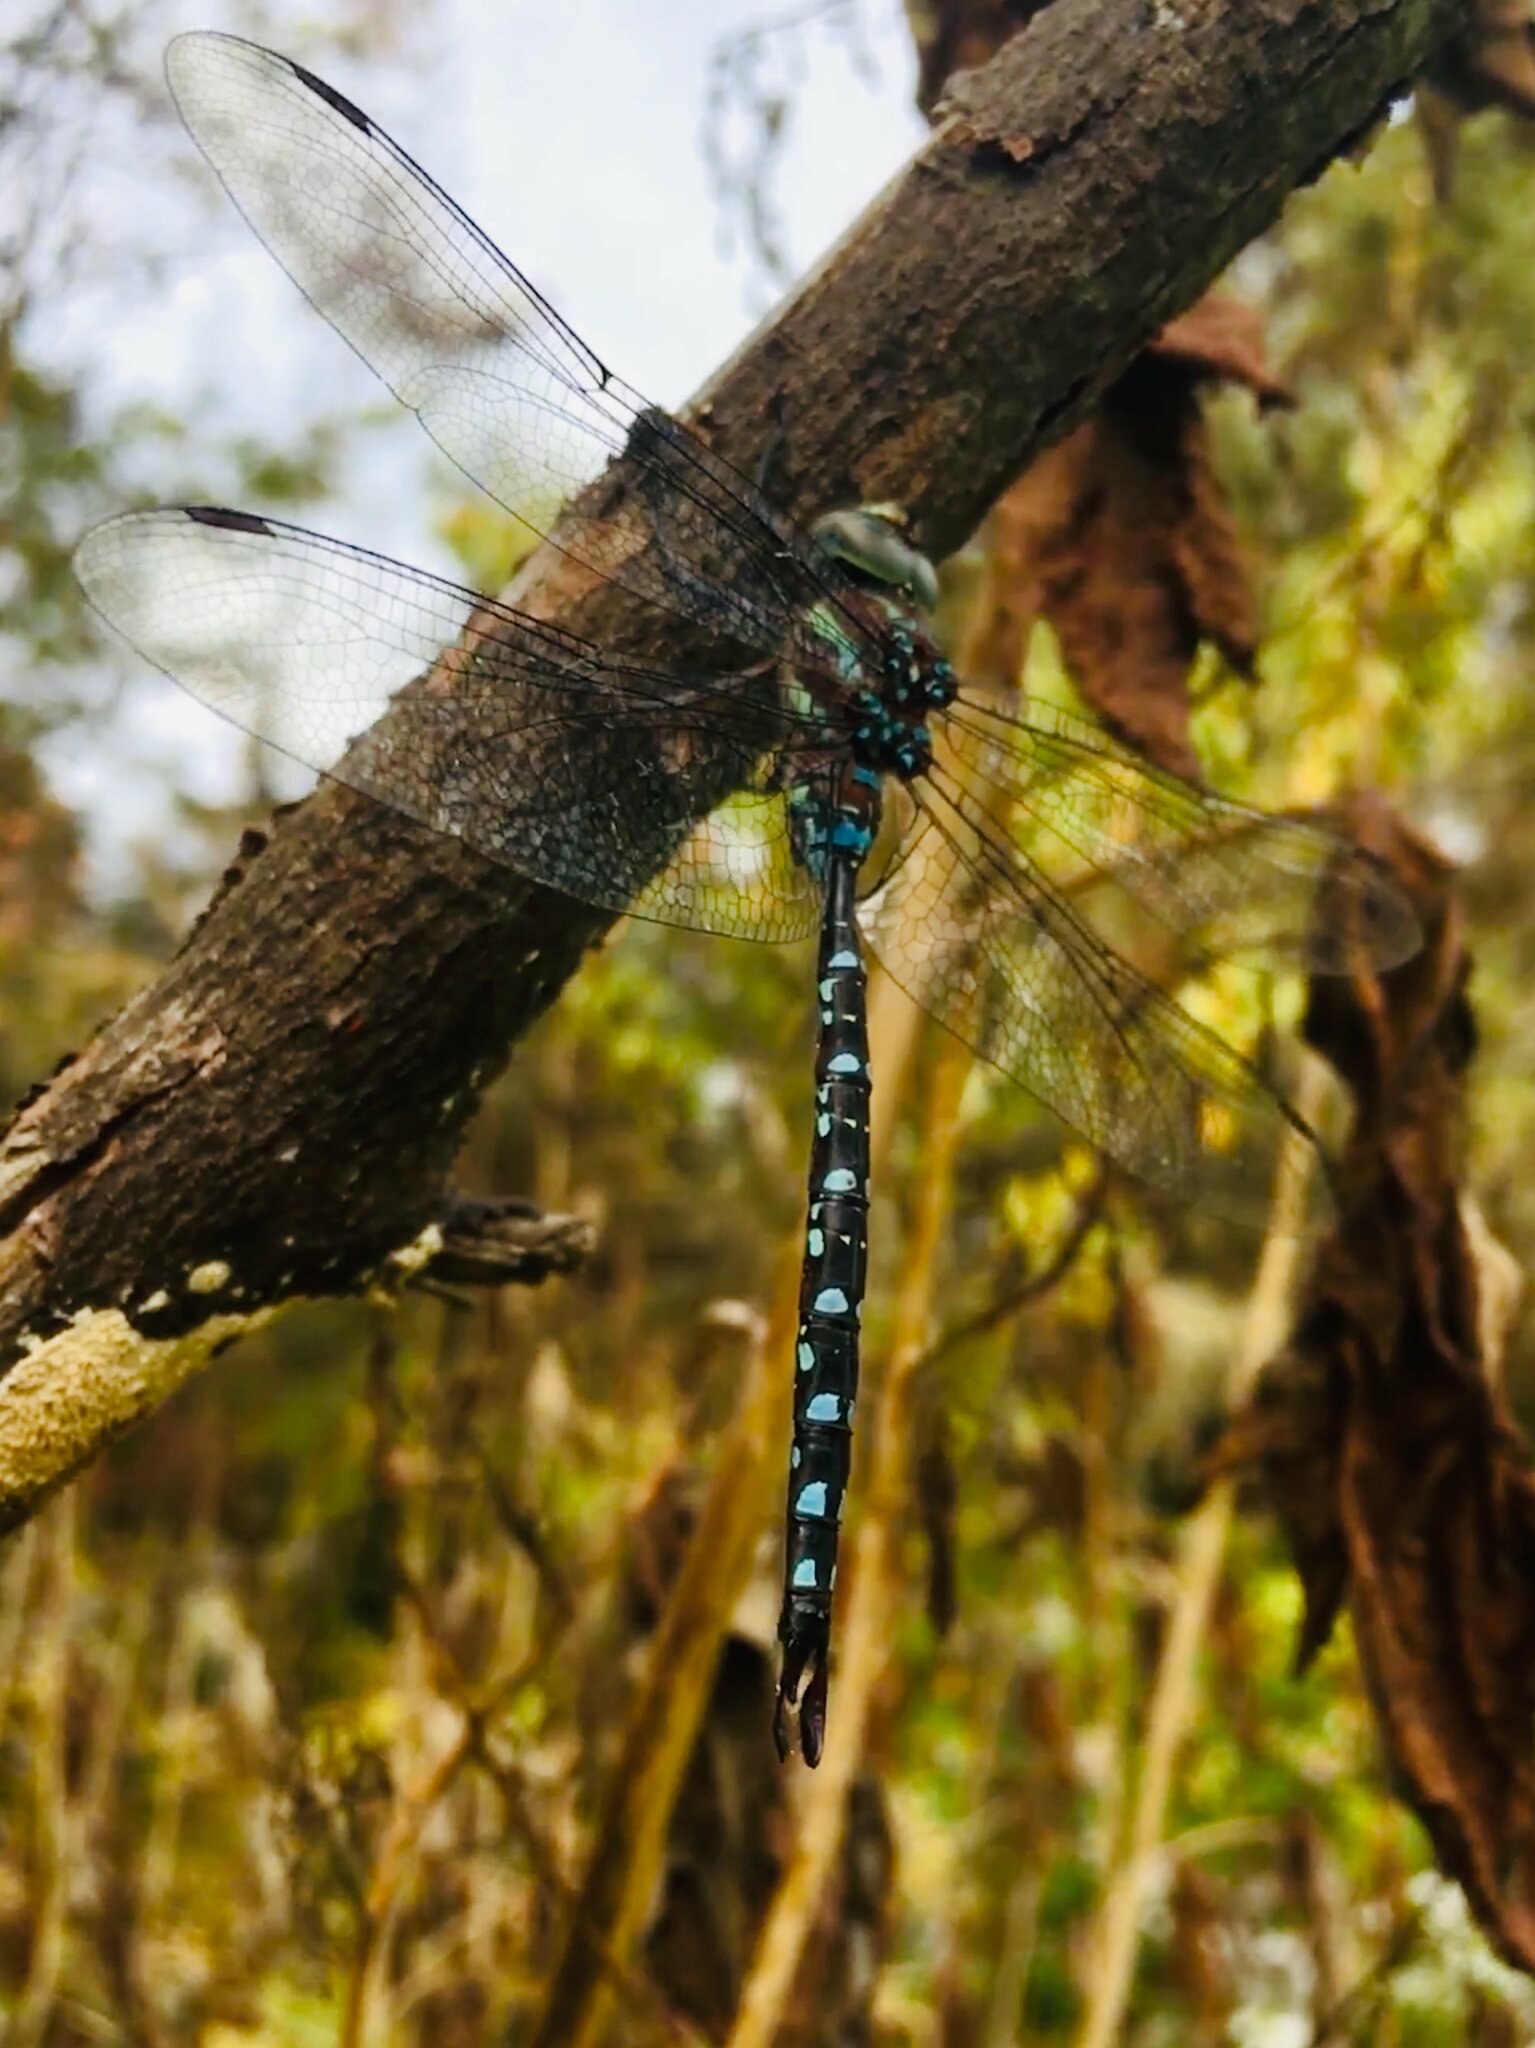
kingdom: Animalia
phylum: Arthropoda
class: Insecta
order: Odonata
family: Aeshnidae
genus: Aeshna
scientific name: Aeshna tuberculifera
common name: Aeschne à tubercules
